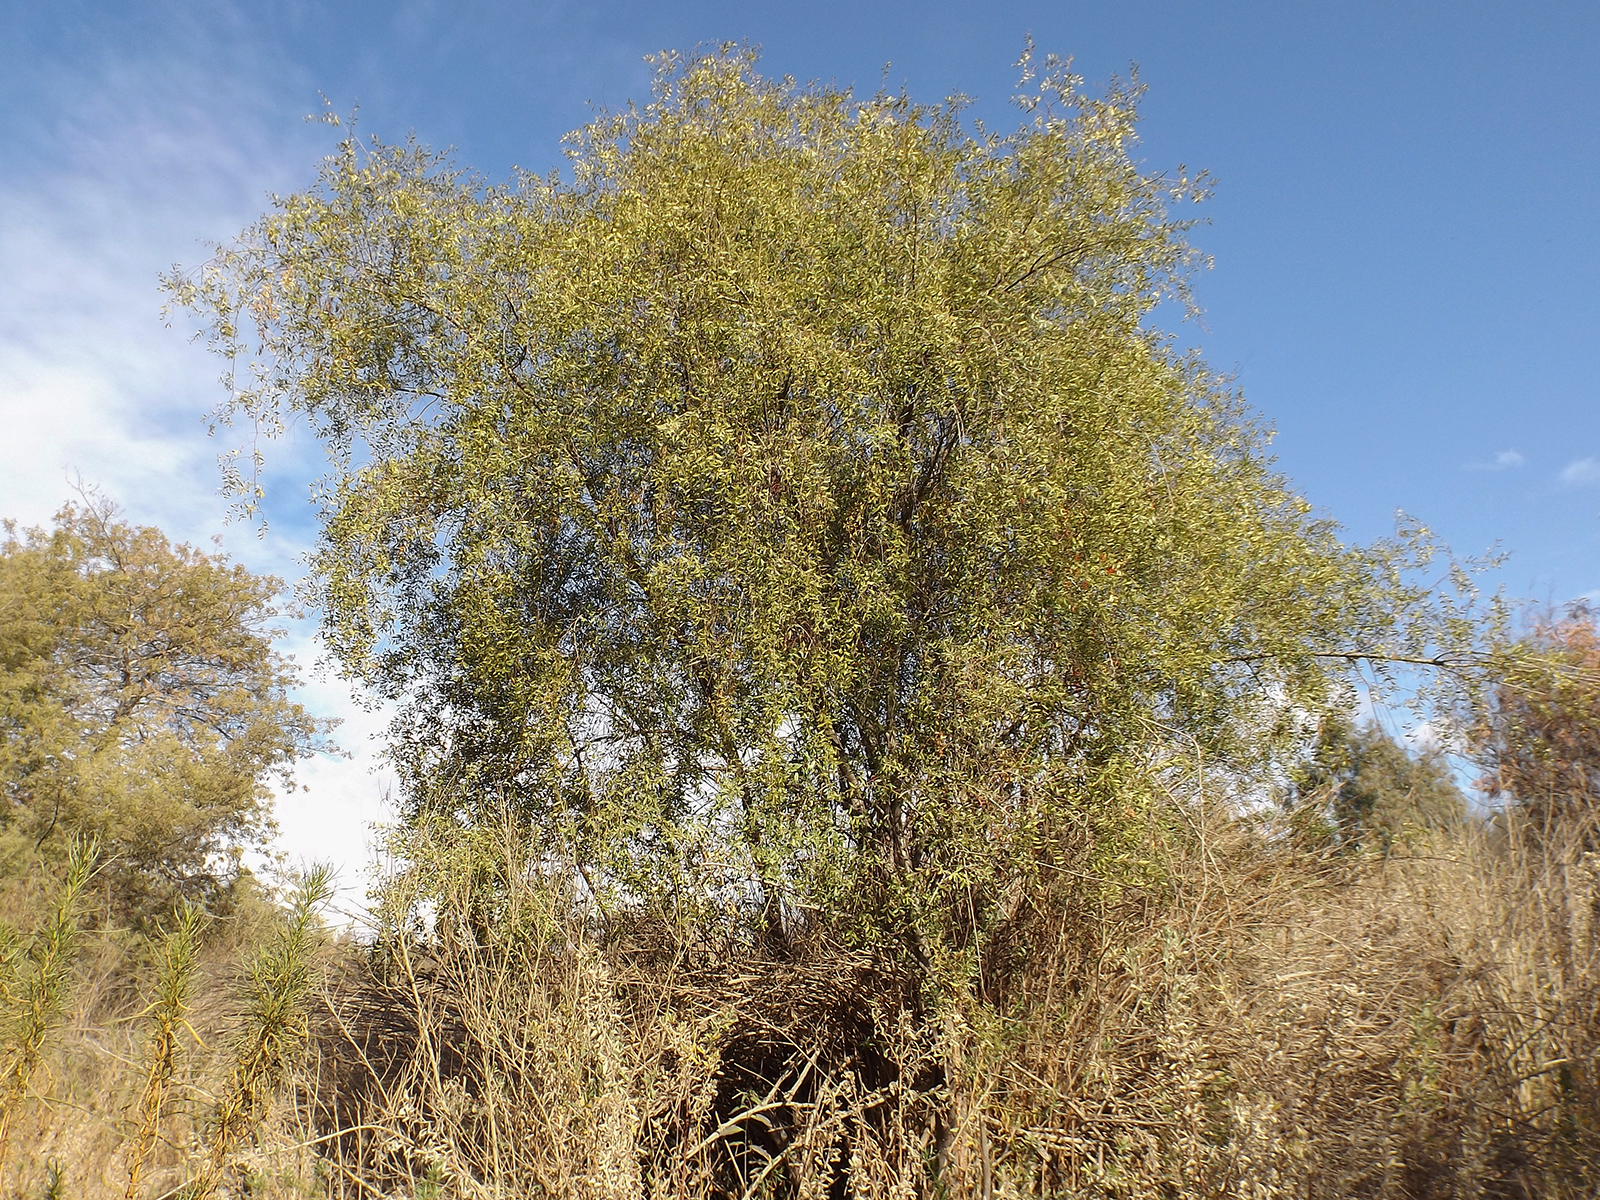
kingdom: Plantae
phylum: Tracheophyta
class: Magnoliopsida
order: Celastrales
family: Celastraceae
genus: Maytenus
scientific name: Maytenus boaria
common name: Mayten
